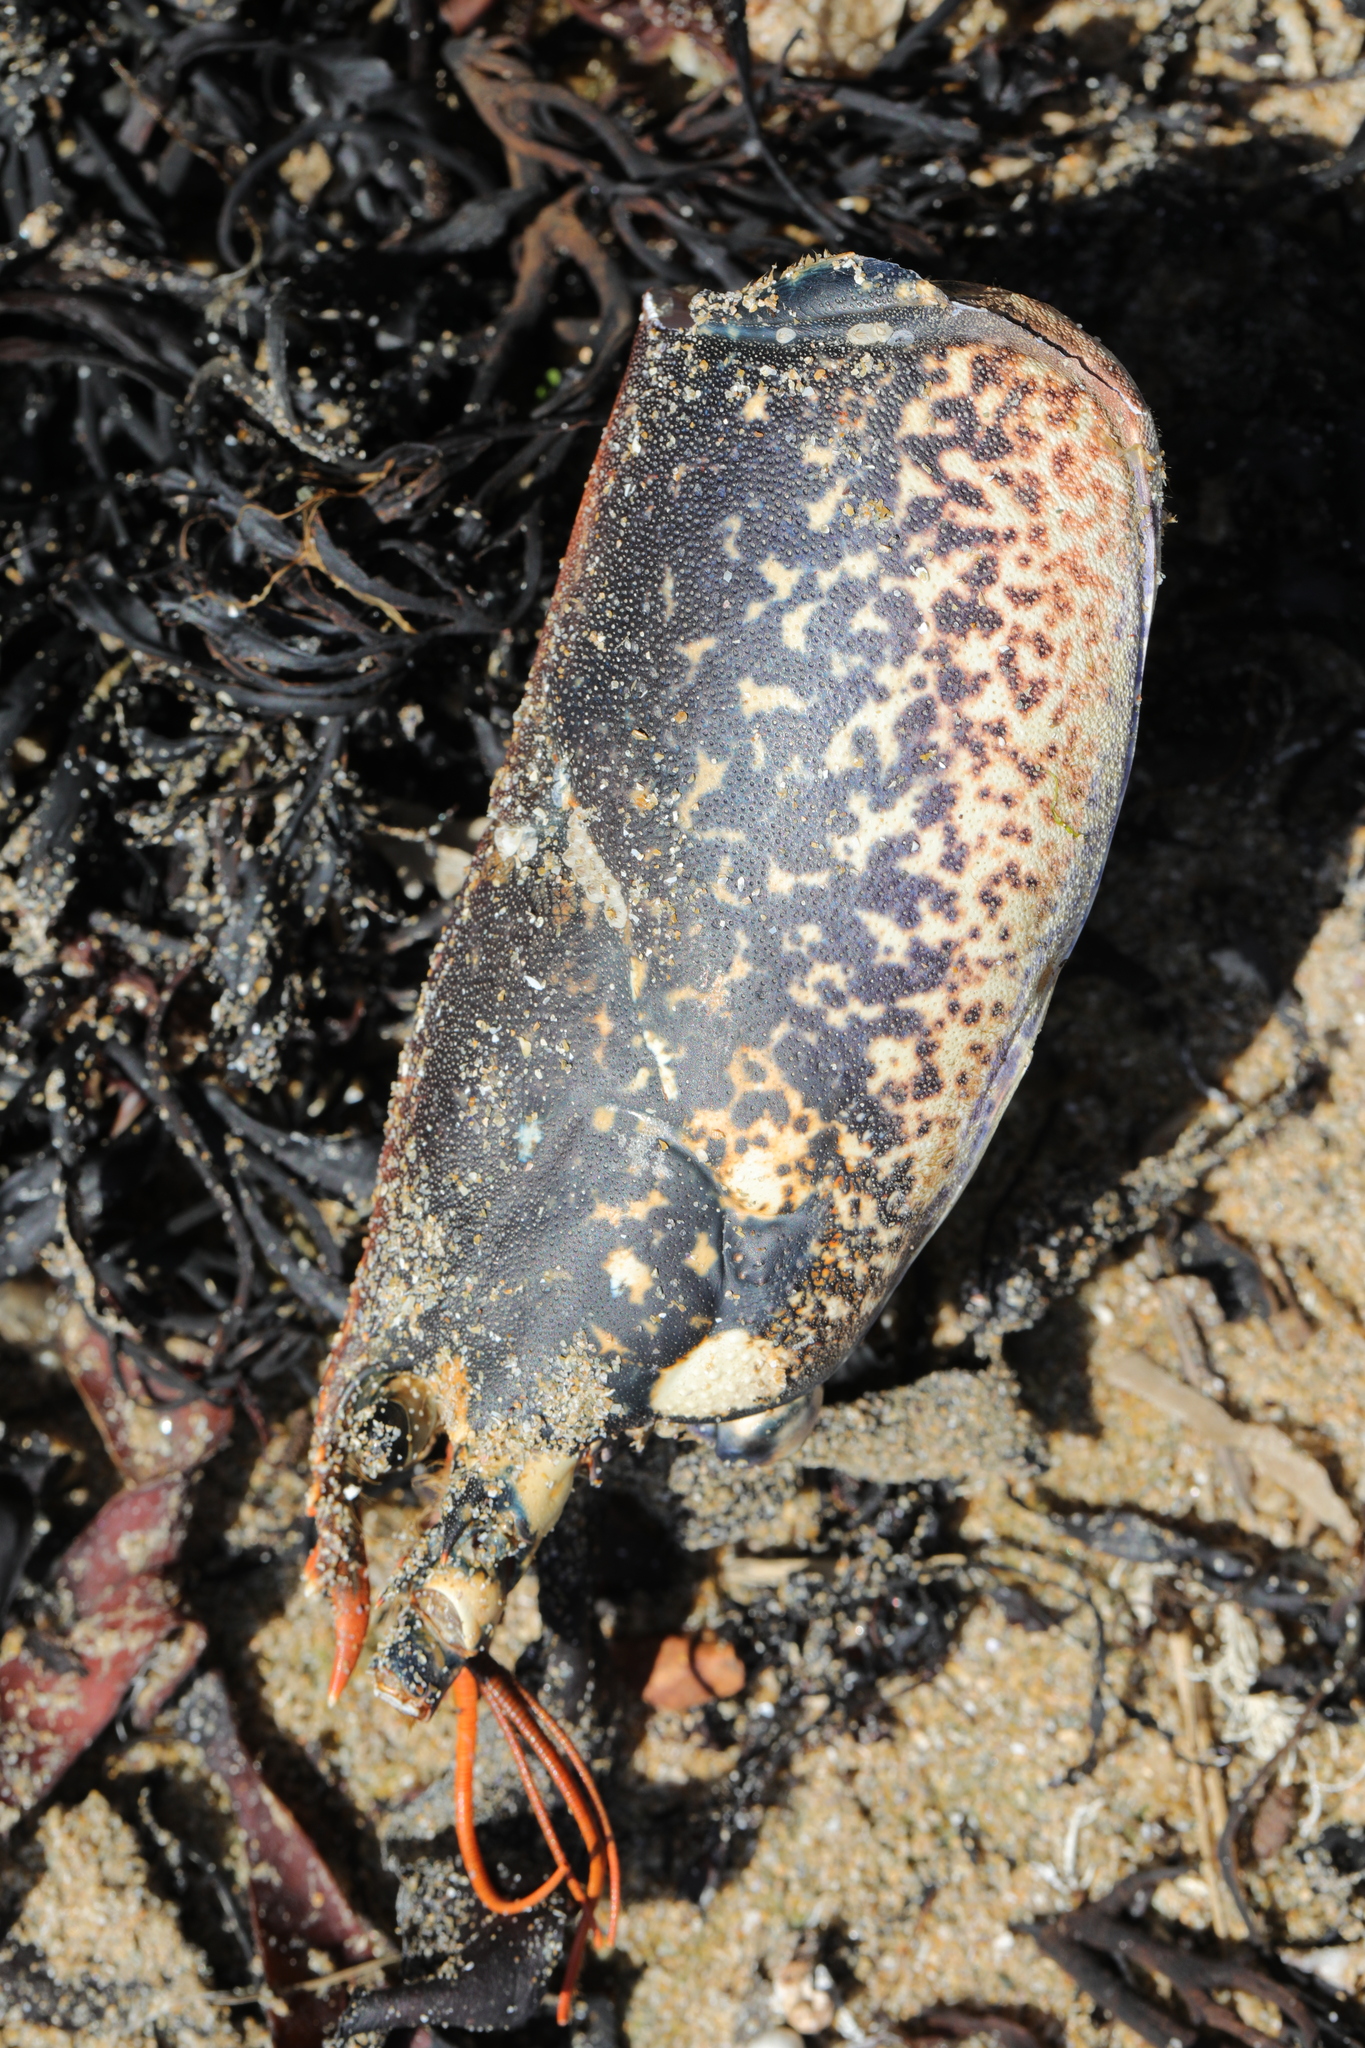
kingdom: Animalia
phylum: Arthropoda
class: Malacostraca
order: Decapoda
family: Nephropidae
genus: Homarus
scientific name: Homarus gammarus
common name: European lobster
